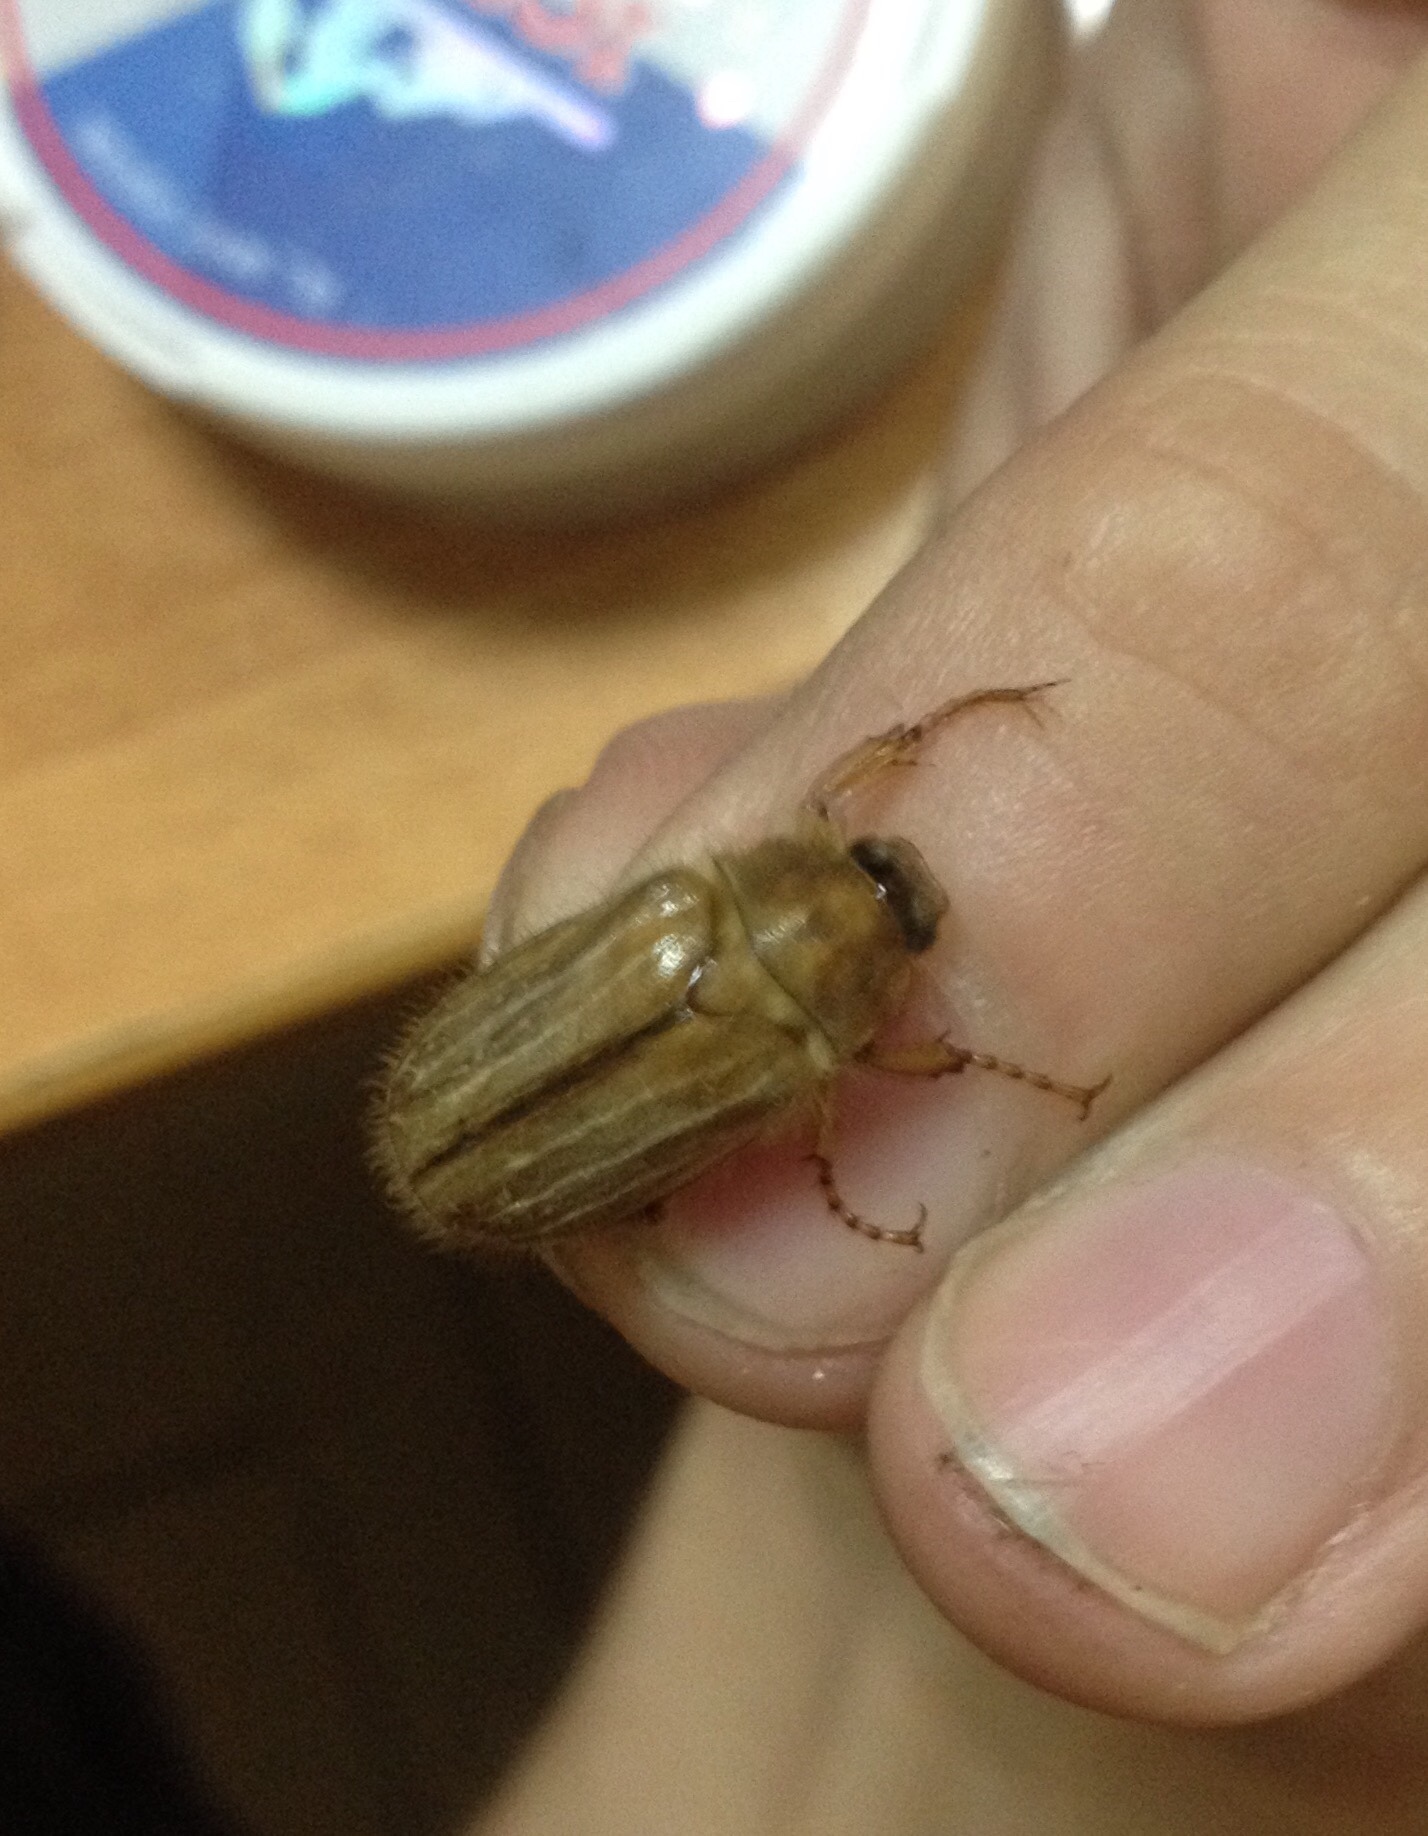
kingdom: Animalia
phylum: Arthropoda
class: Insecta
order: Coleoptera
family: Scarabaeidae
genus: Amphimallon
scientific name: Amphimallon solstitiale
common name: Summer chafer
